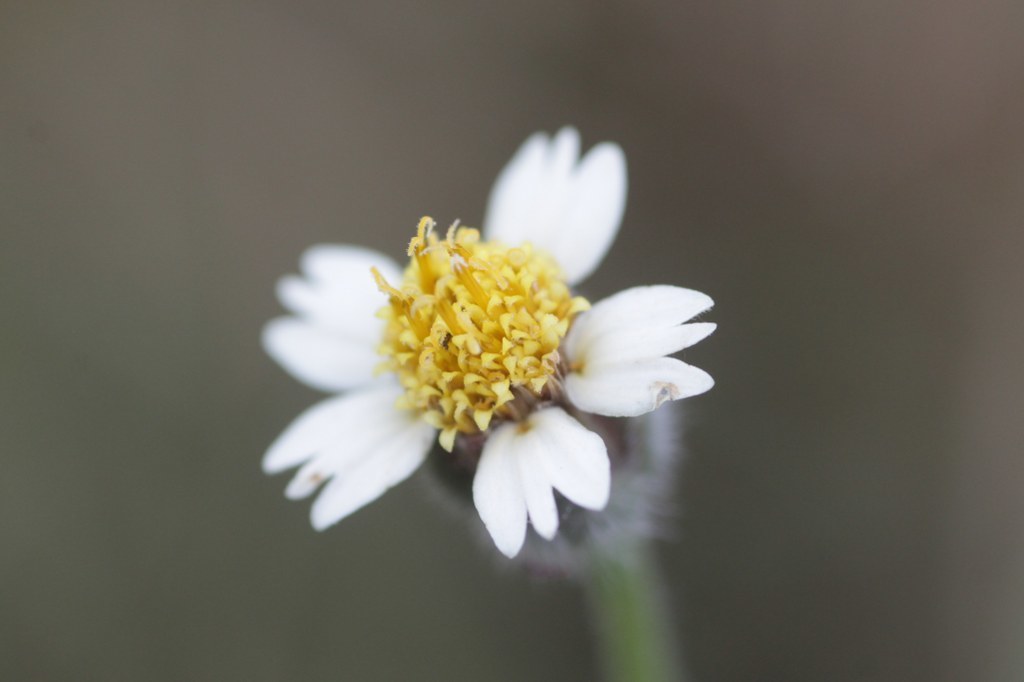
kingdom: Plantae
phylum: Tracheophyta
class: Magnoliopsida
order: Asterales
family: Asteraceae
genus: Tridax
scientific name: Tridax procumbens
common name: Coatbuttons
